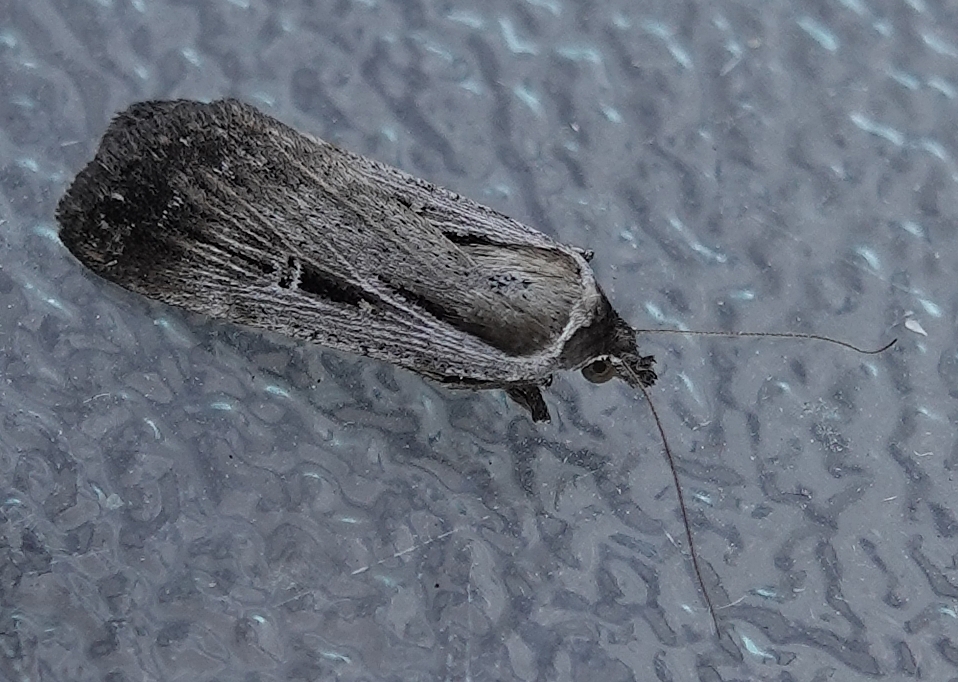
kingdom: Animalia
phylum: Arthropoda
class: Insecta
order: Lepidoptera
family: Noctuidae
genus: Tathorhynchus
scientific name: Tathorhynchus exsiccata
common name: Levant blackneck moth
